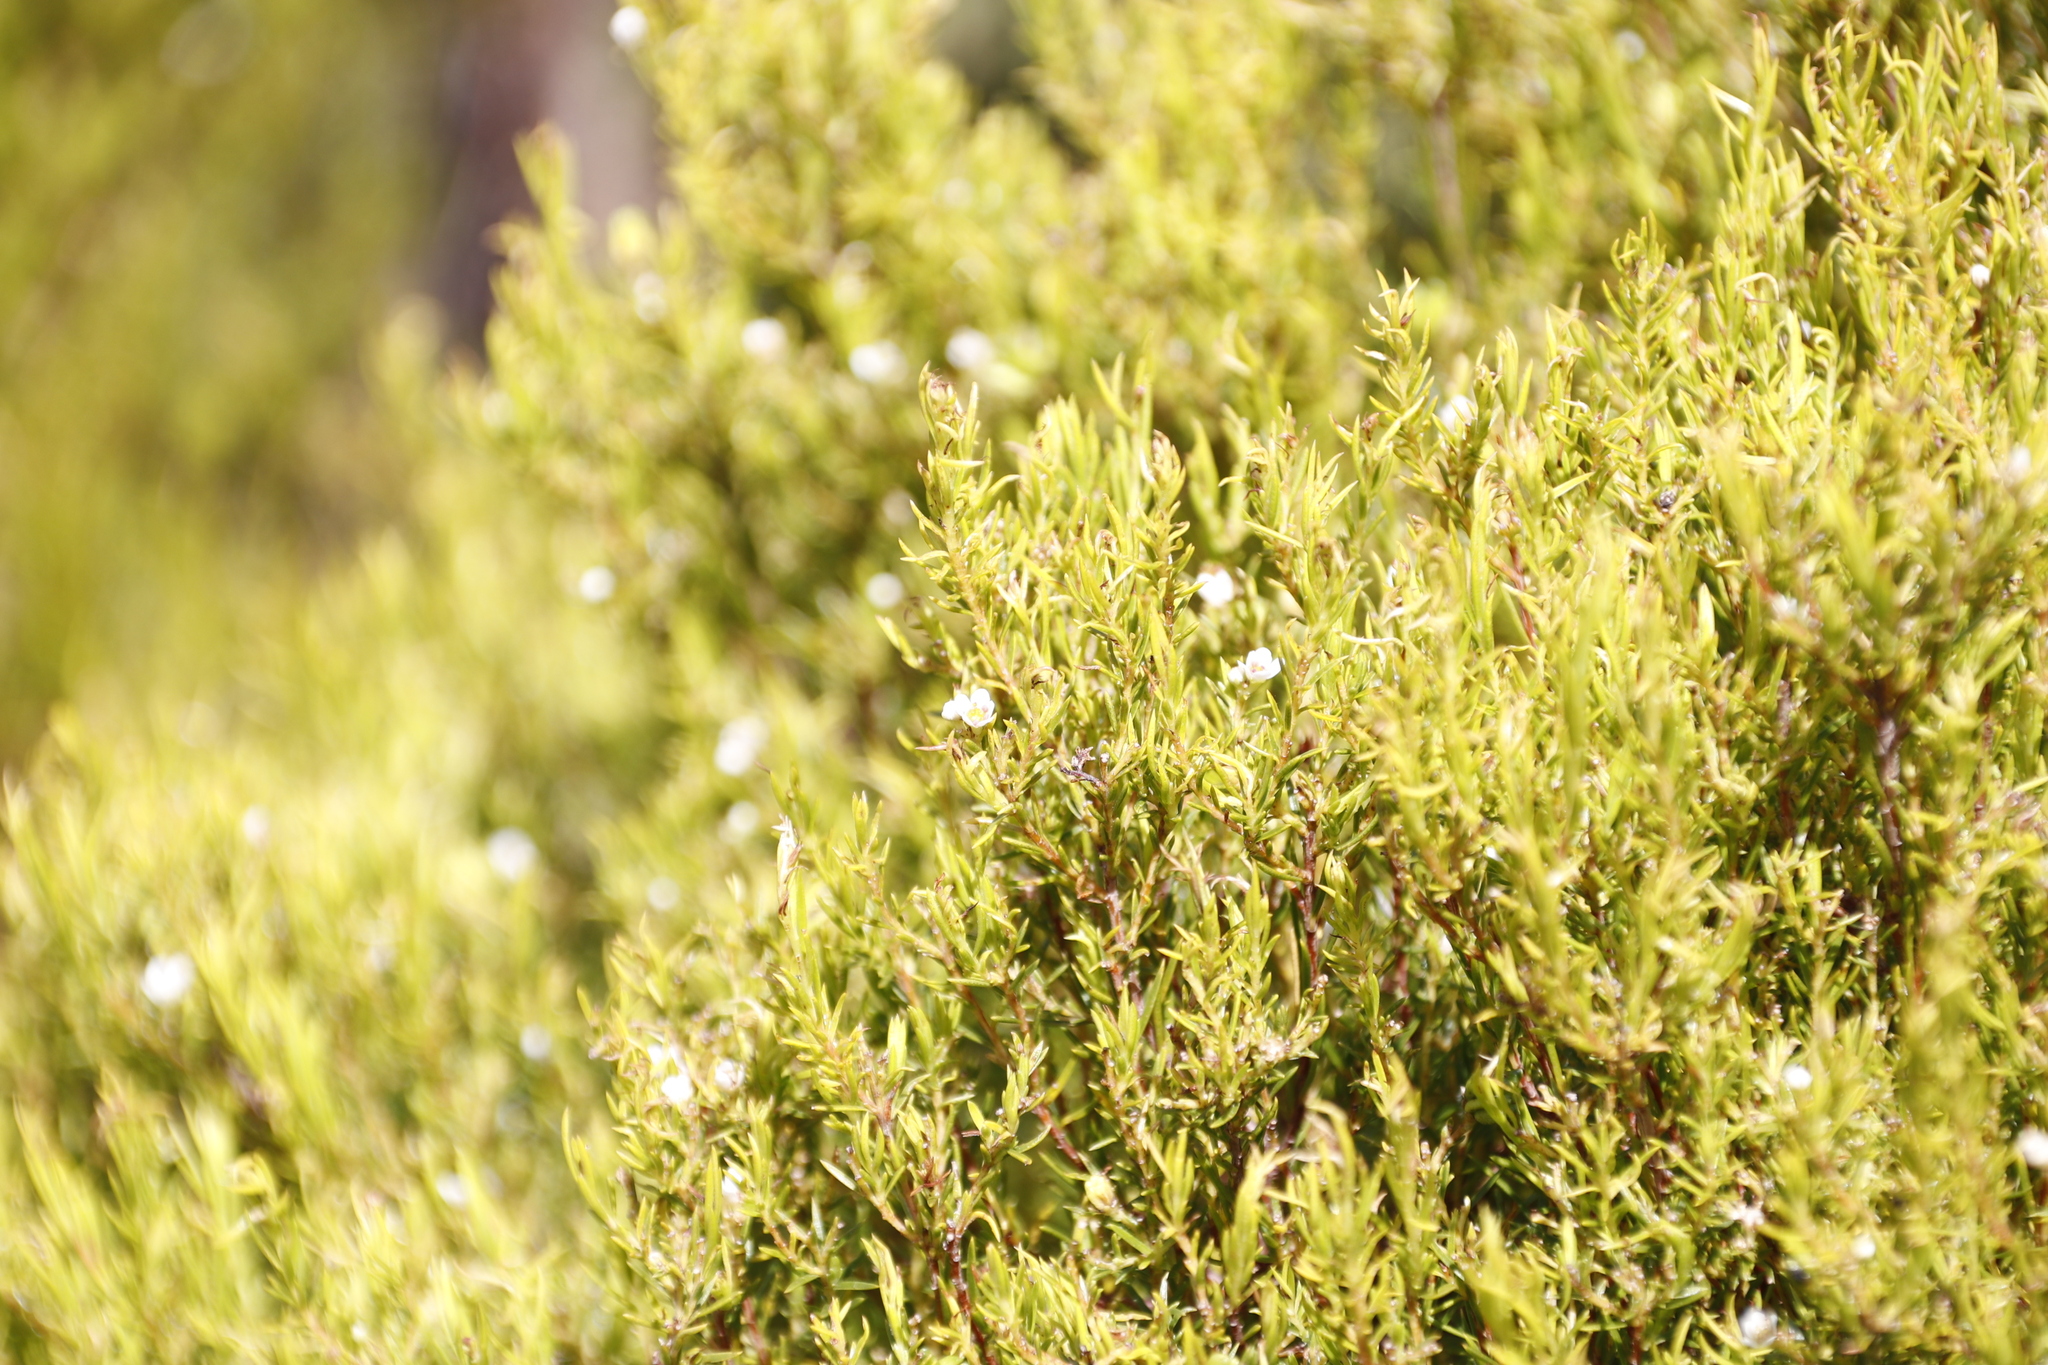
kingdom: Plantae
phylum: Tracheophyta
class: Magnoliopsida
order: Sapindales
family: Rutaceae
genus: Coleonema
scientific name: Coleonema album
